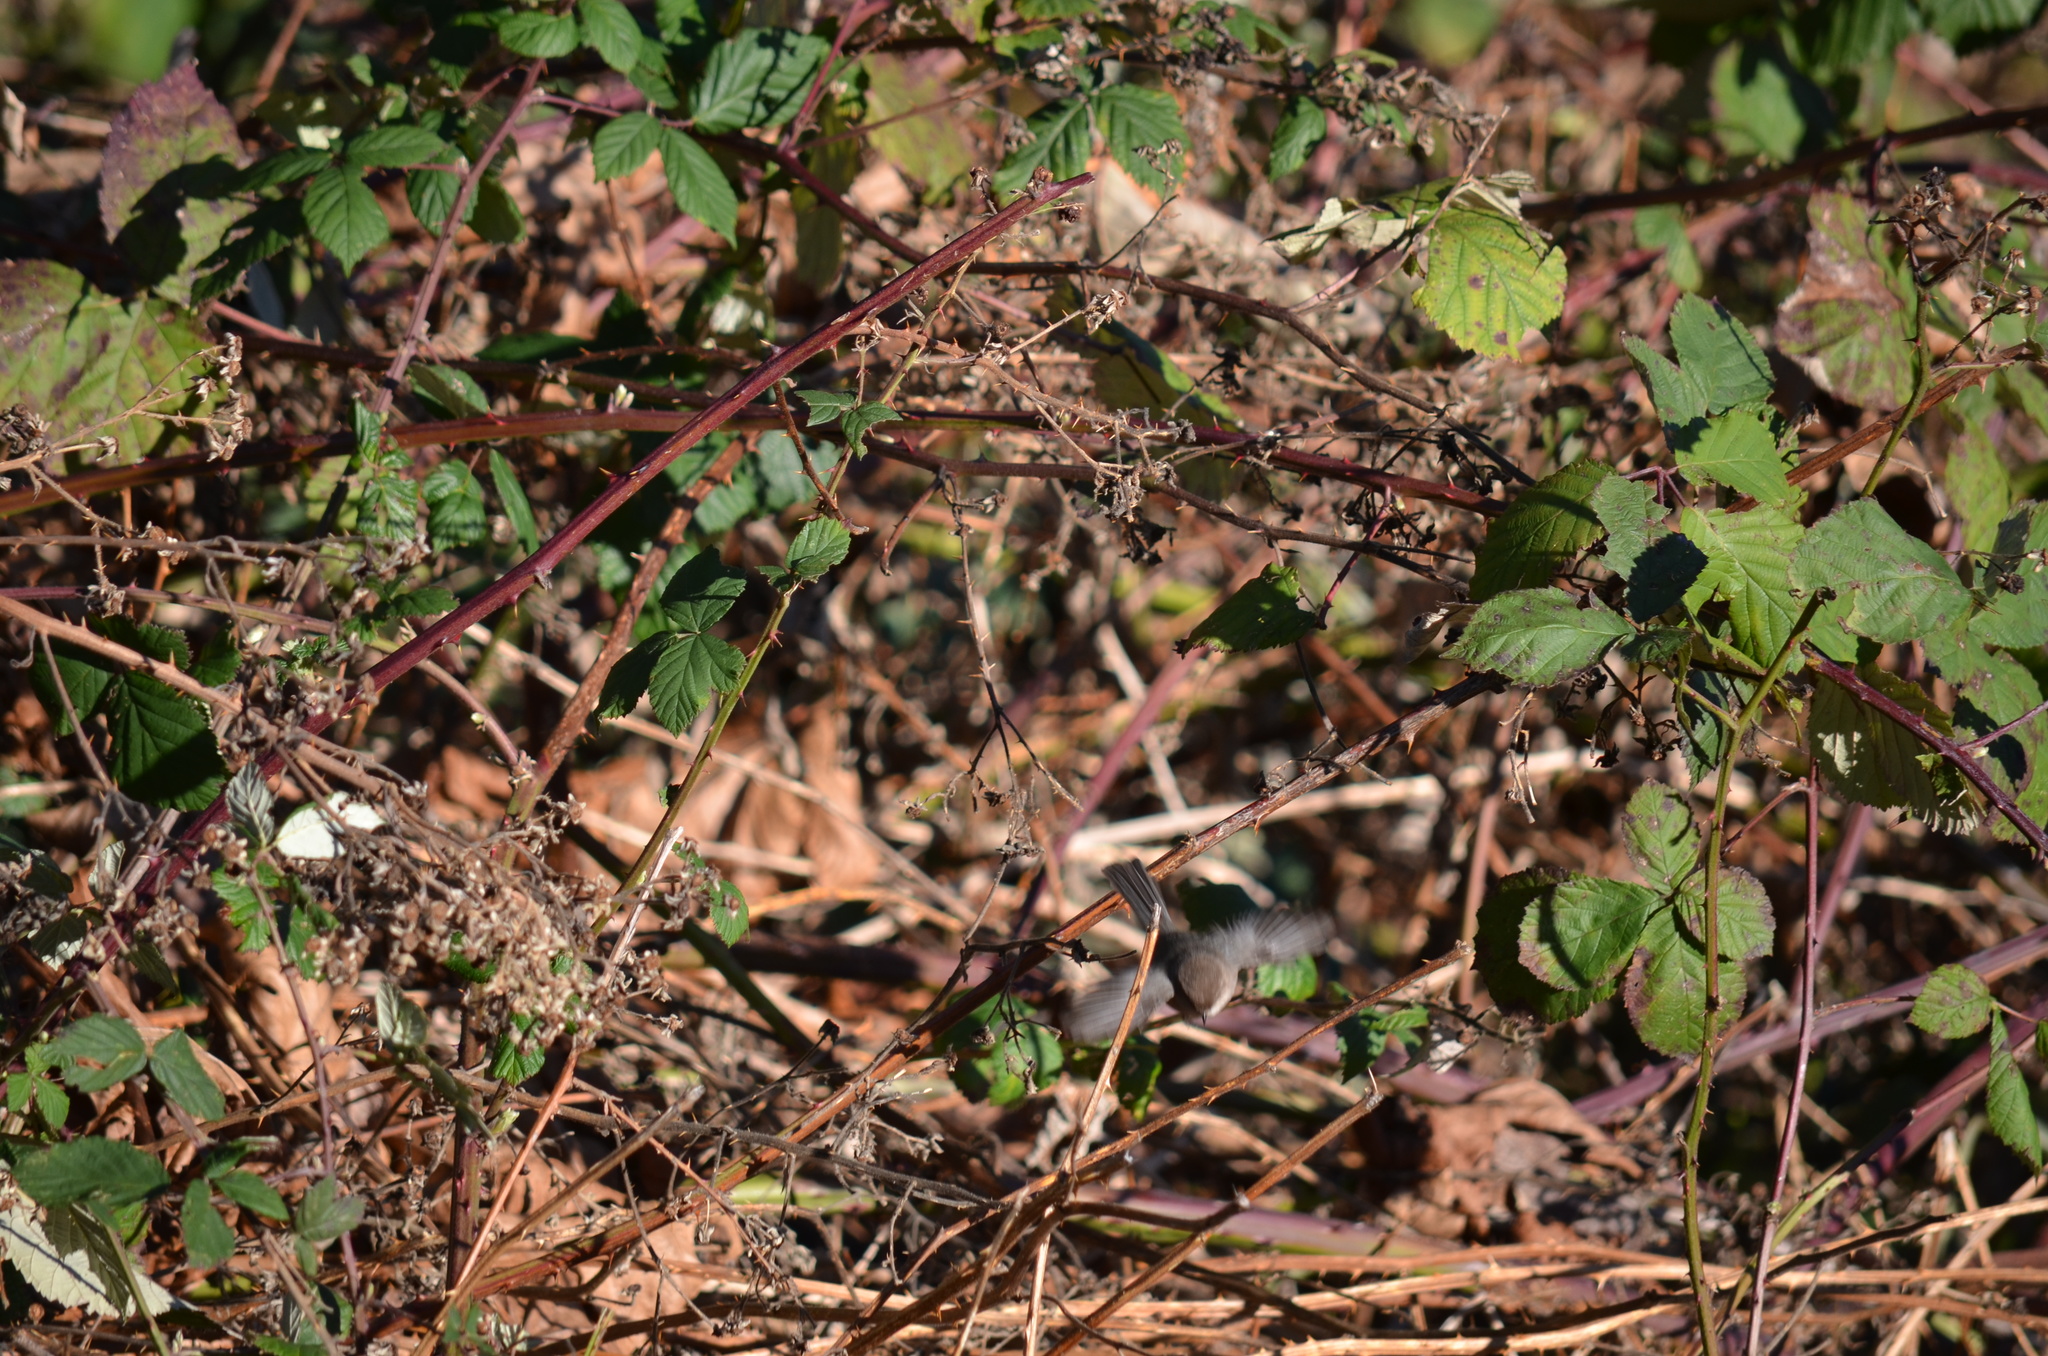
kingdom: Animalia
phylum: Chordata
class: Aves
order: Passeriformes
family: Aegithalidae
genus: Psaltriparus
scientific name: Psaltriparus minimus
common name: American bushtit
